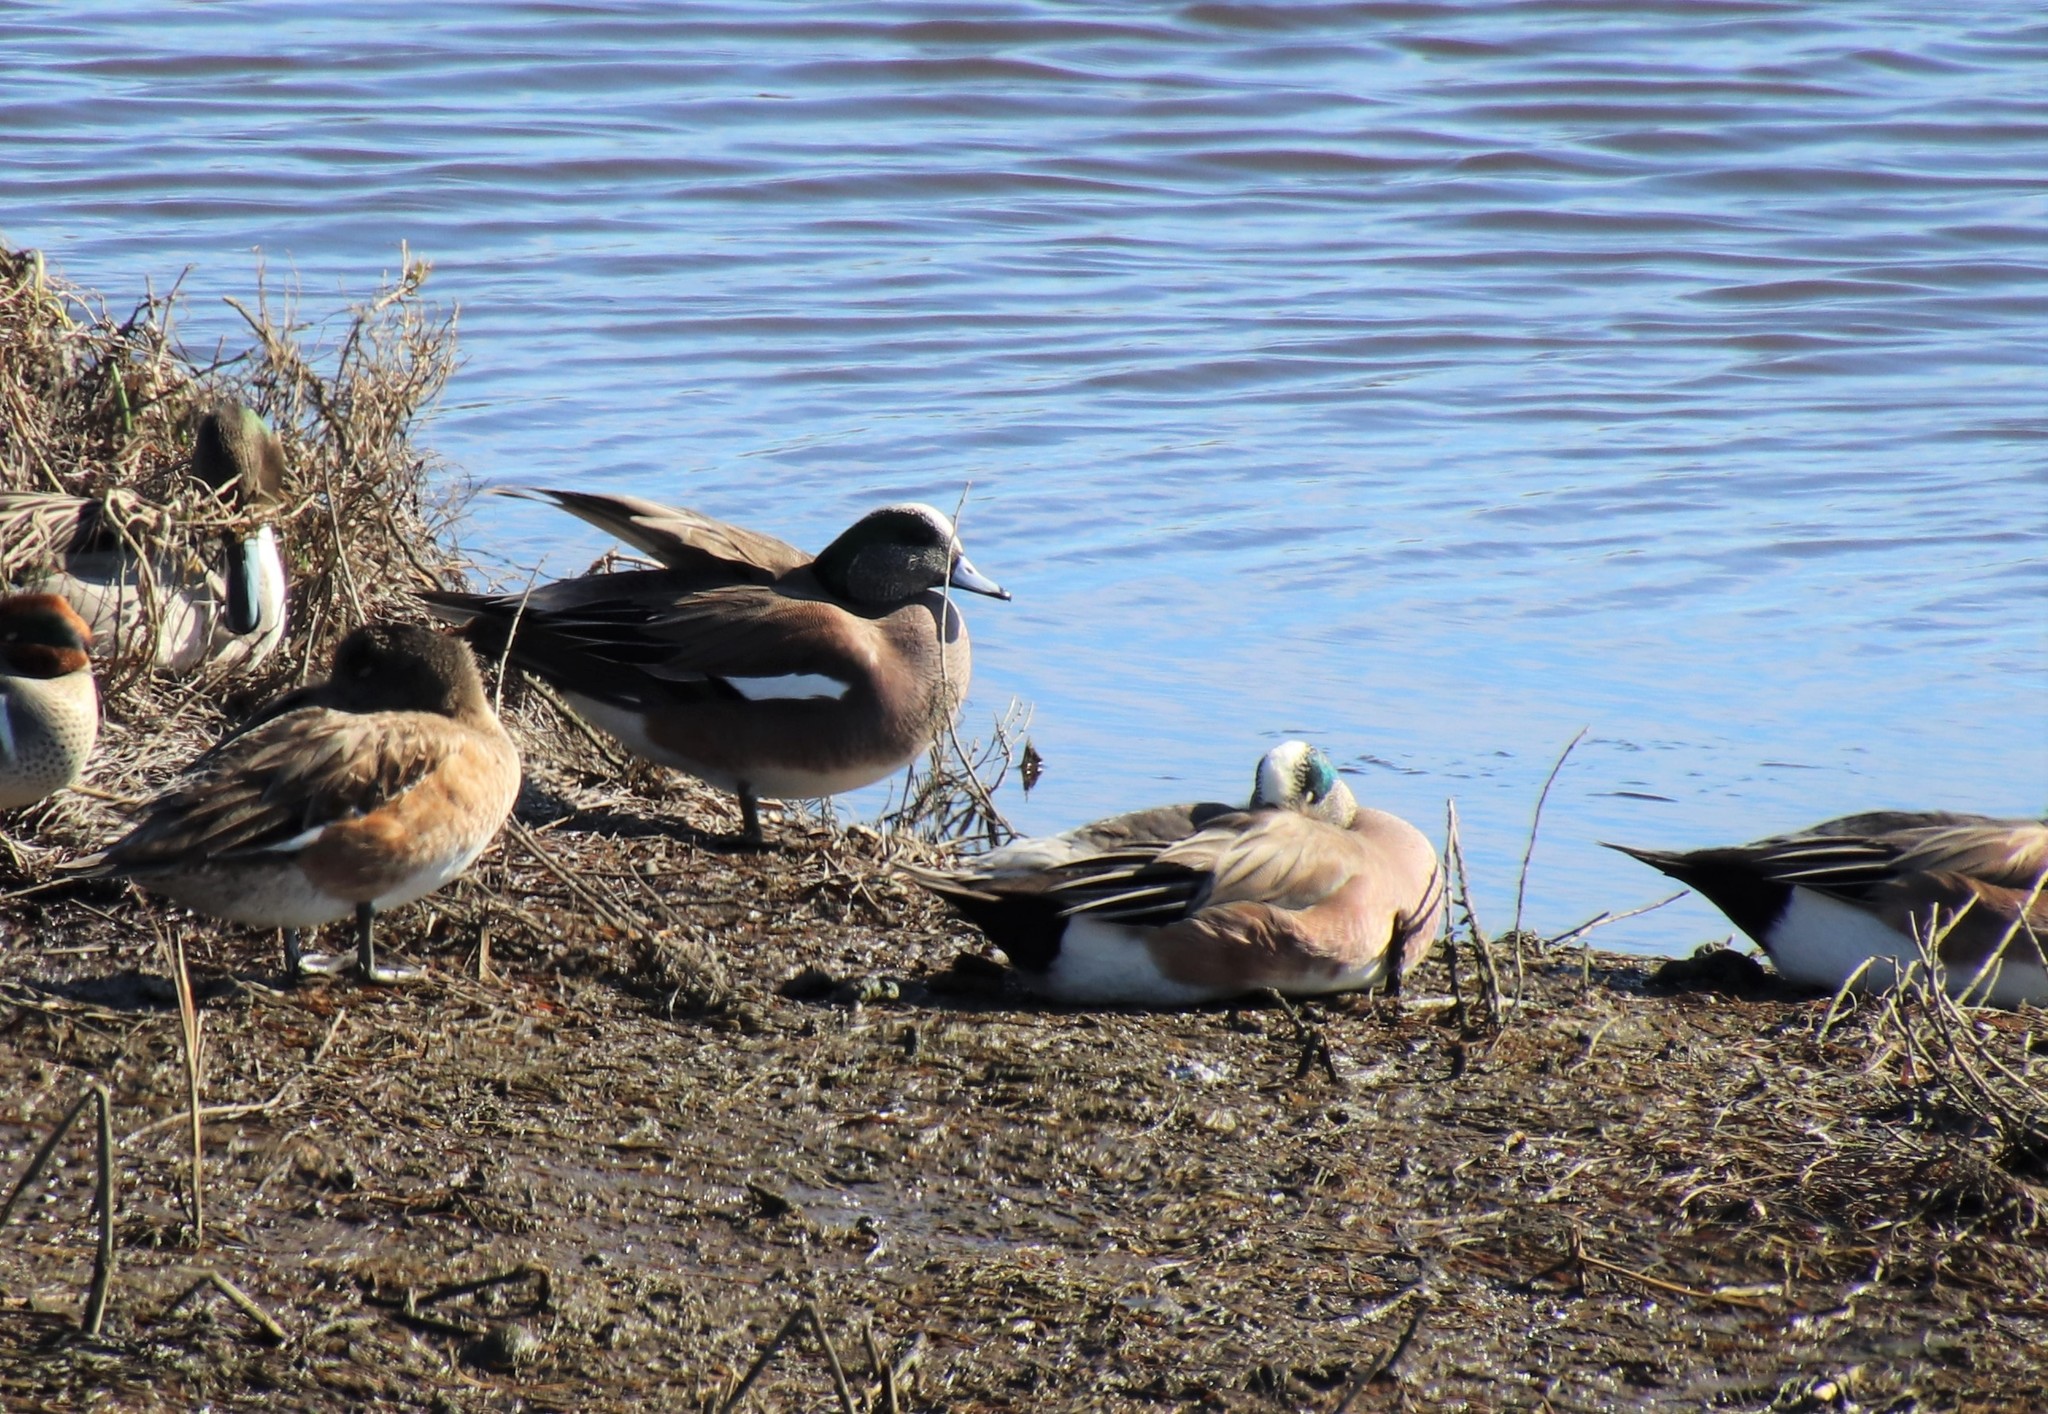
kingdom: Animalia
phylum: Chordata
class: Aves
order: Anseriformes
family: Anatidae
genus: Mareca
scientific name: Mareca americana
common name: American wigeon
